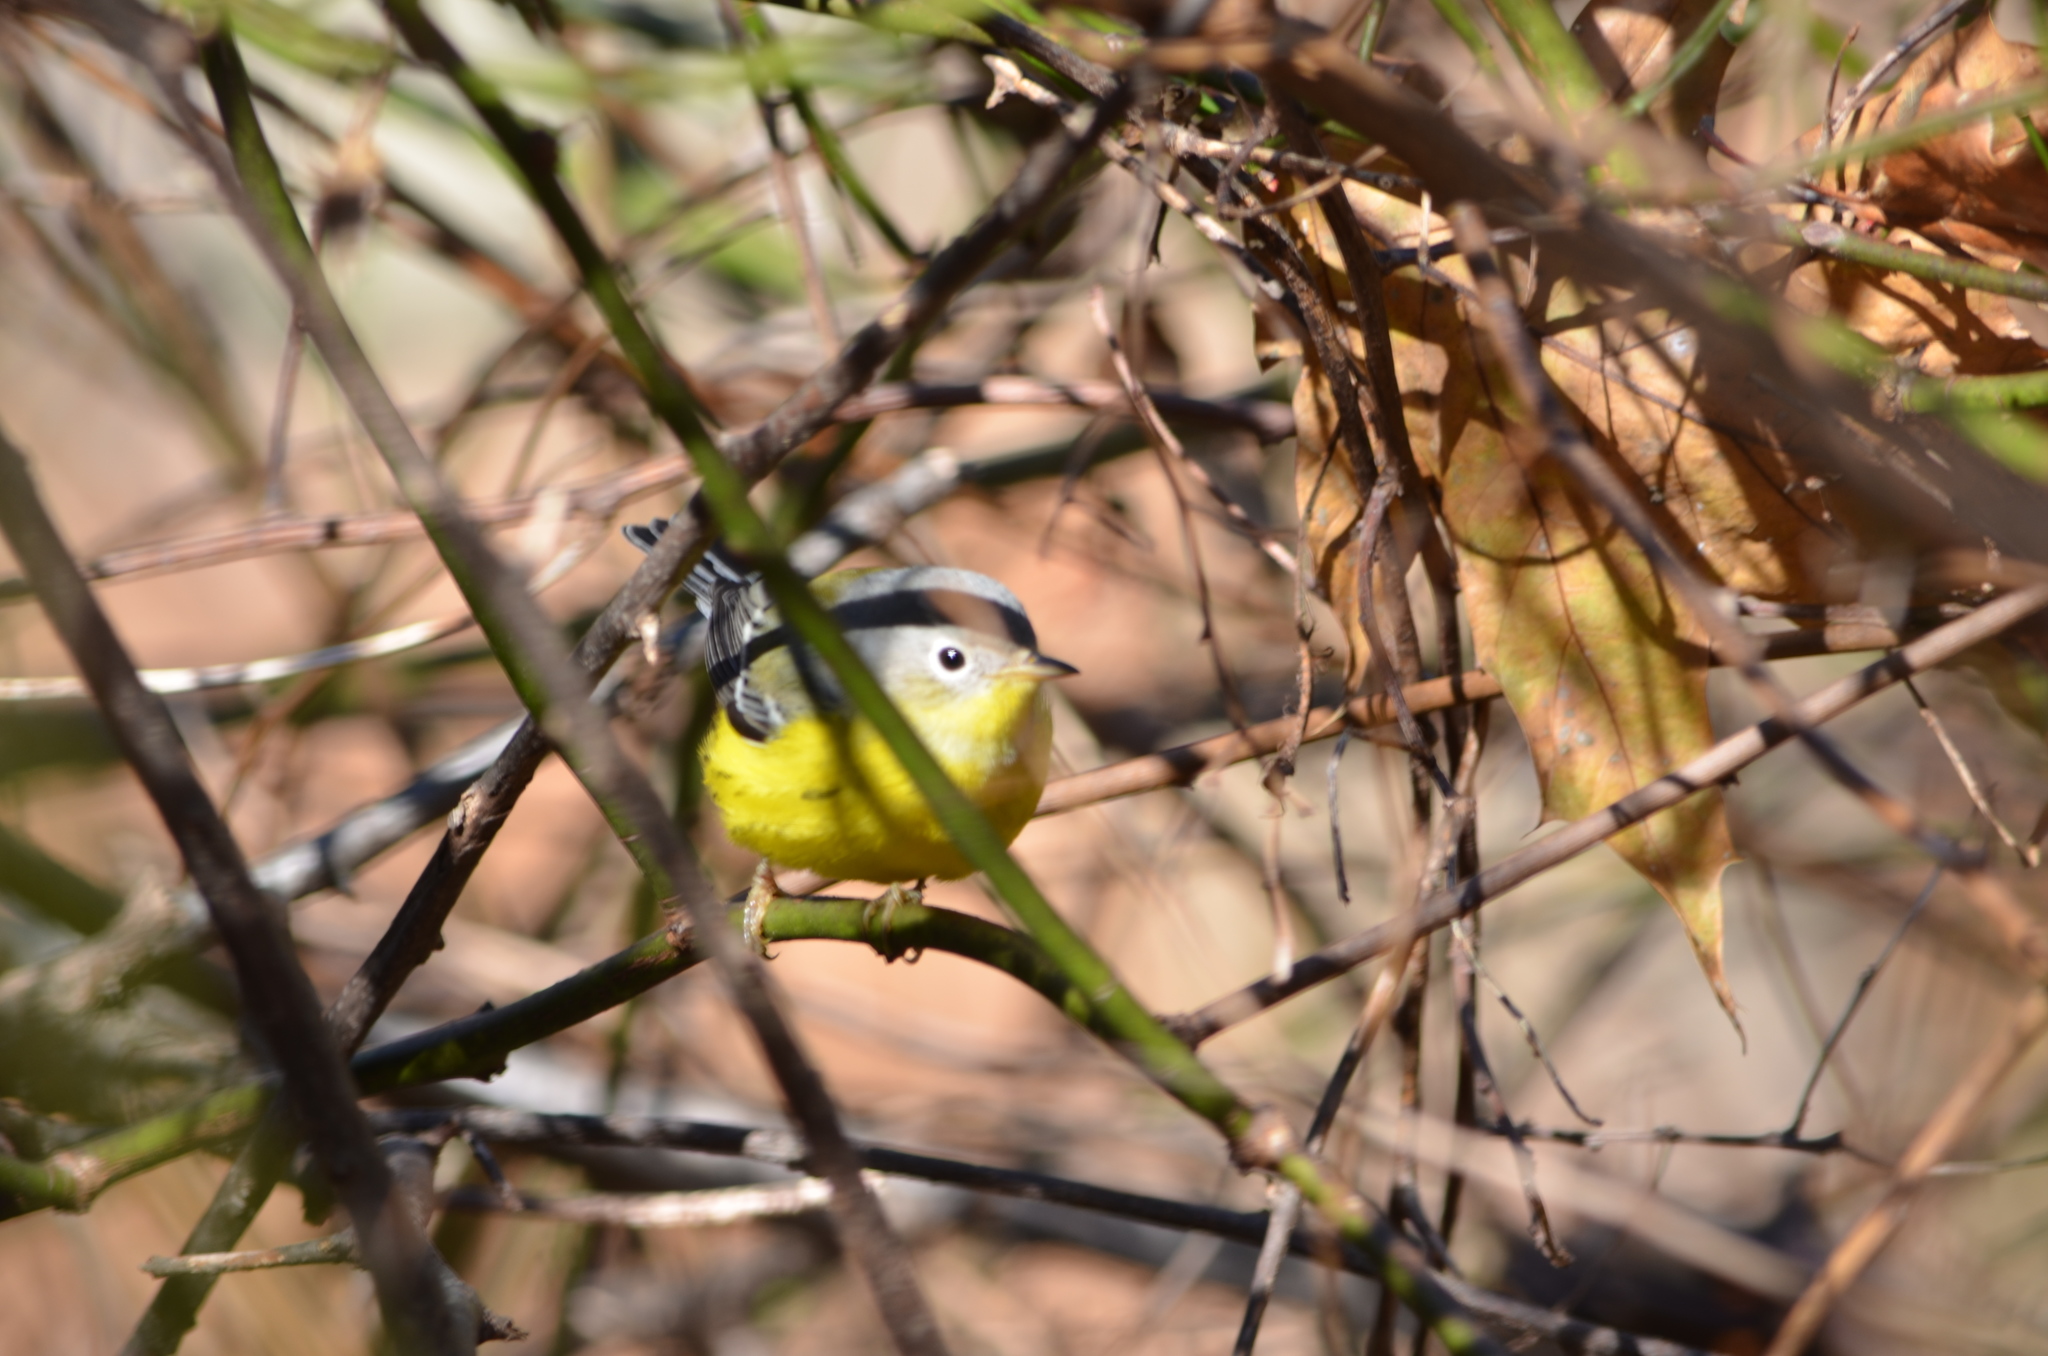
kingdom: Animalia
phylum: Chordata
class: Aves
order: Passeriformes
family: Parulidae
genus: Setophaga
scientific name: Setophaga magnolia
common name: Magnolia warbler
